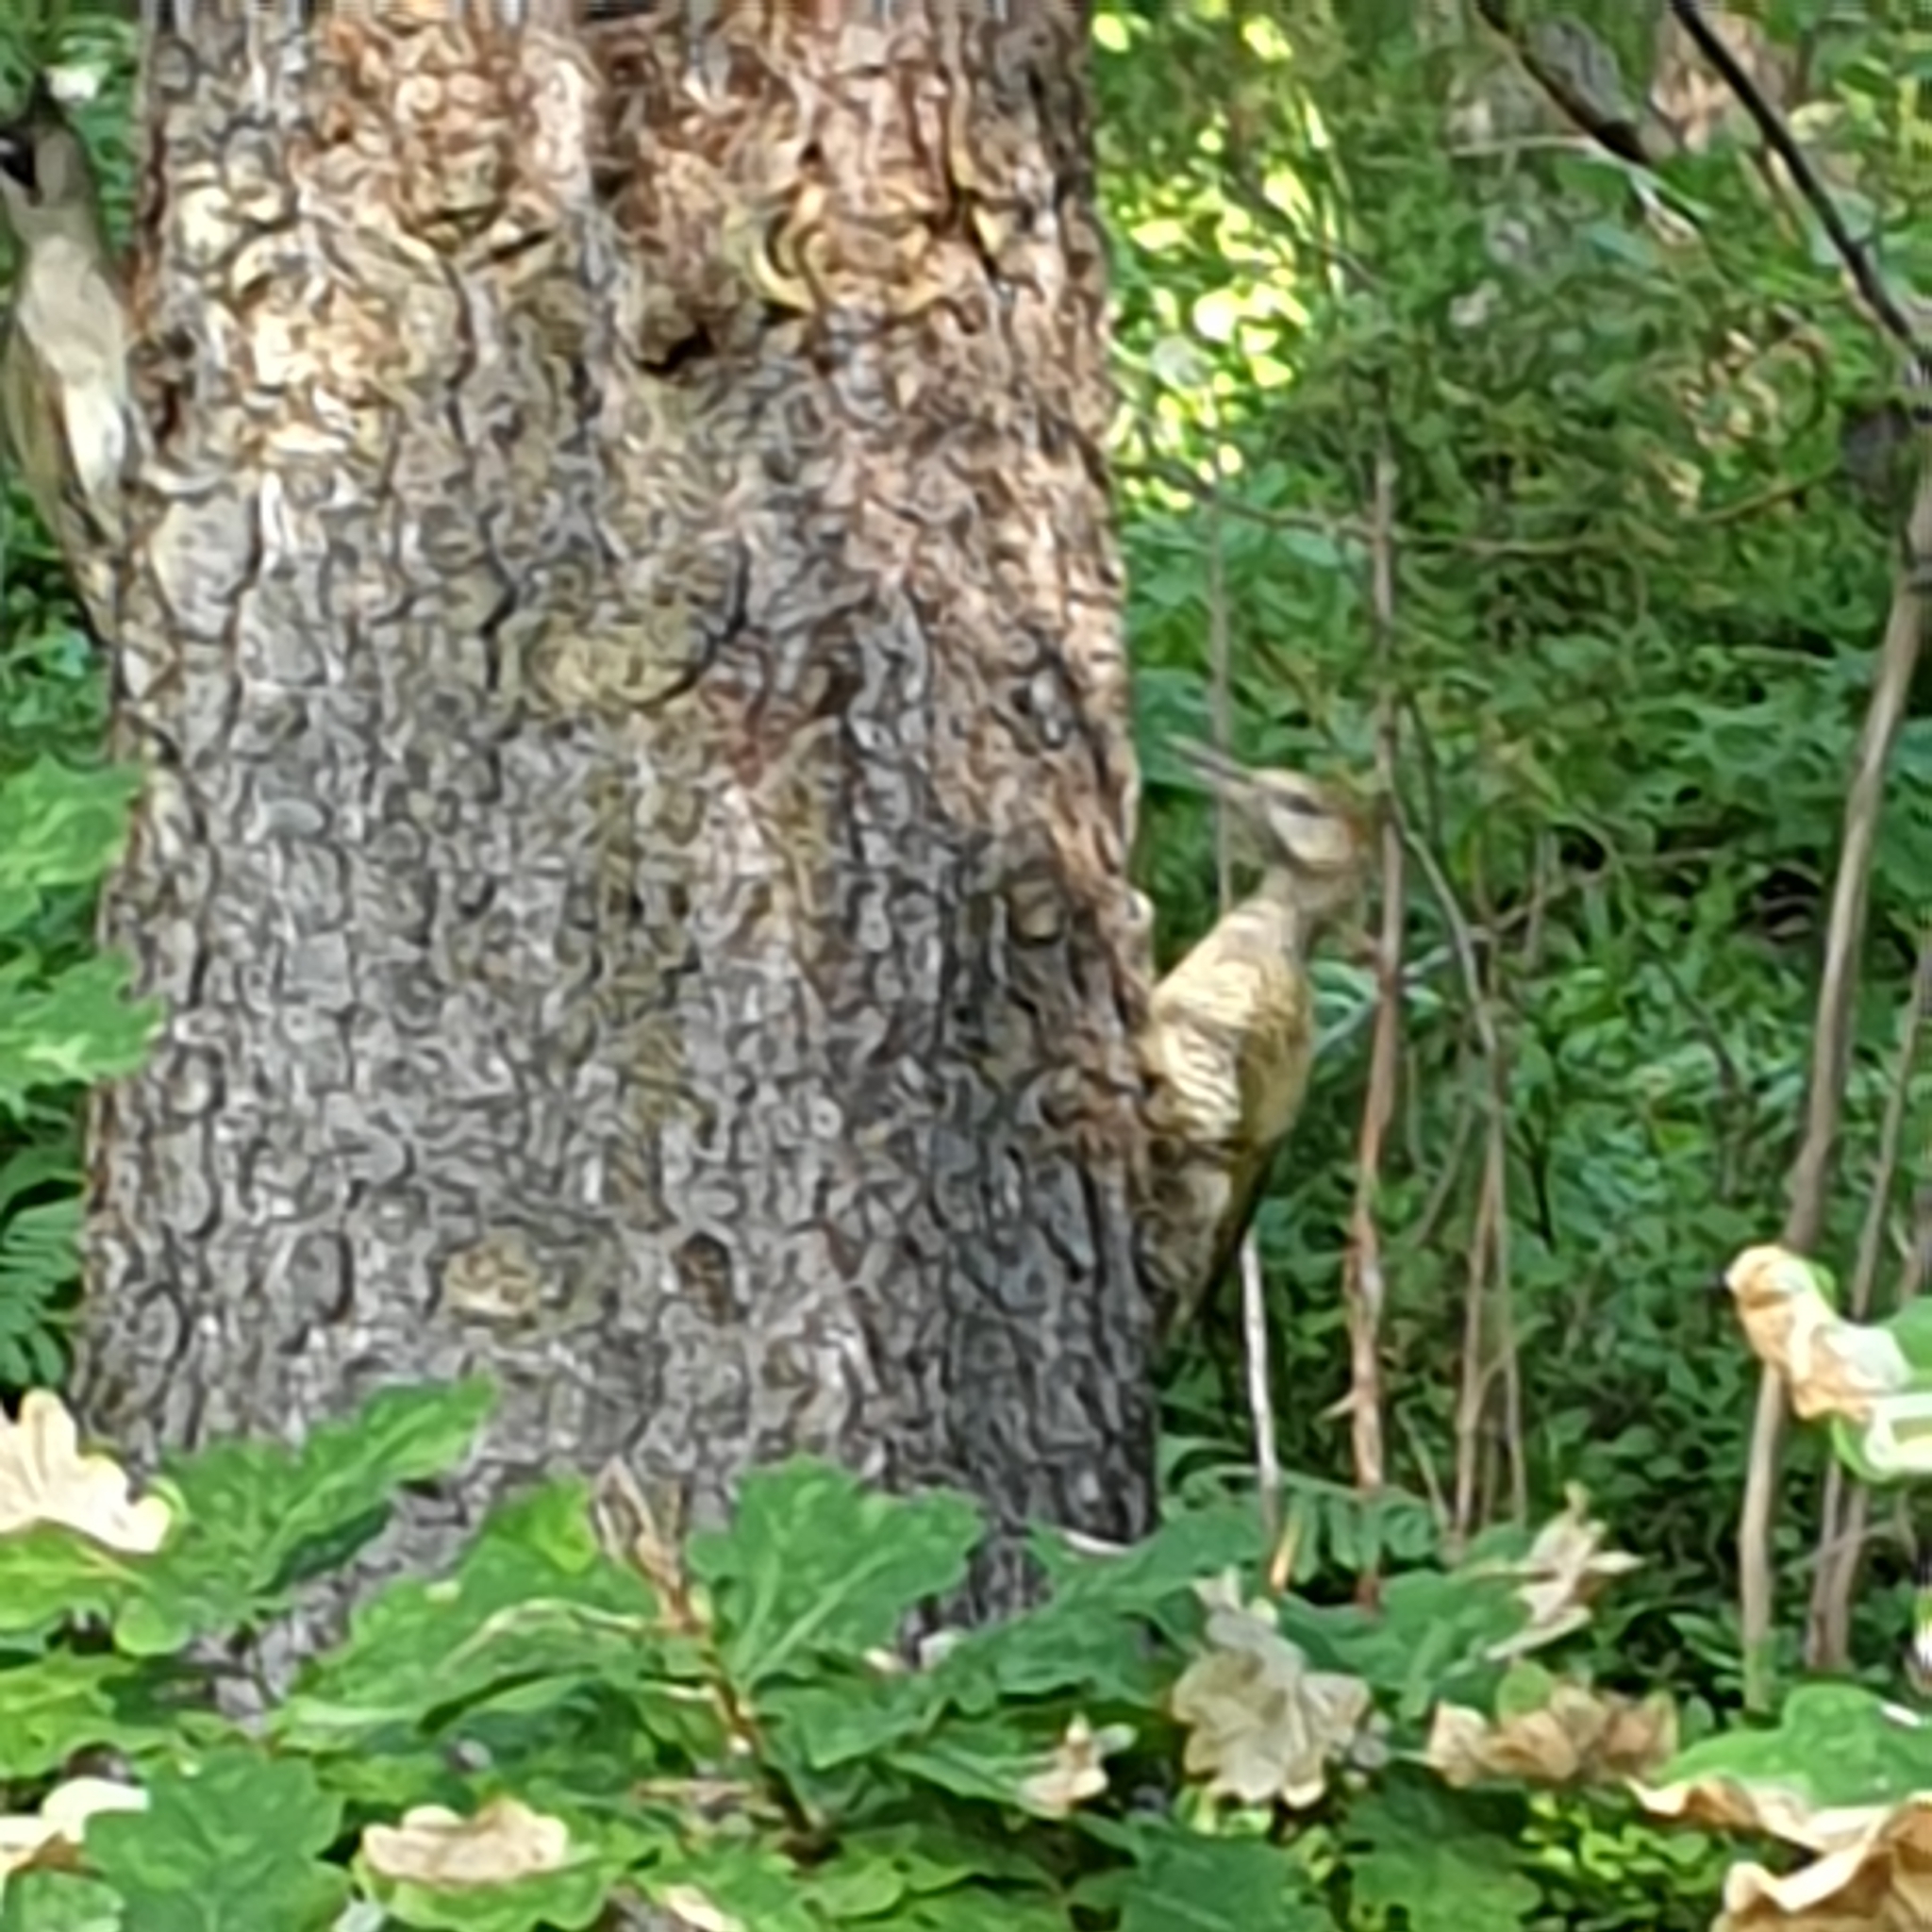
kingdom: Animalia
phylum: Chordata
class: Aves
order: Piciformes
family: Picidae
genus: Picus
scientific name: Picus viridis
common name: European green woodpecker
